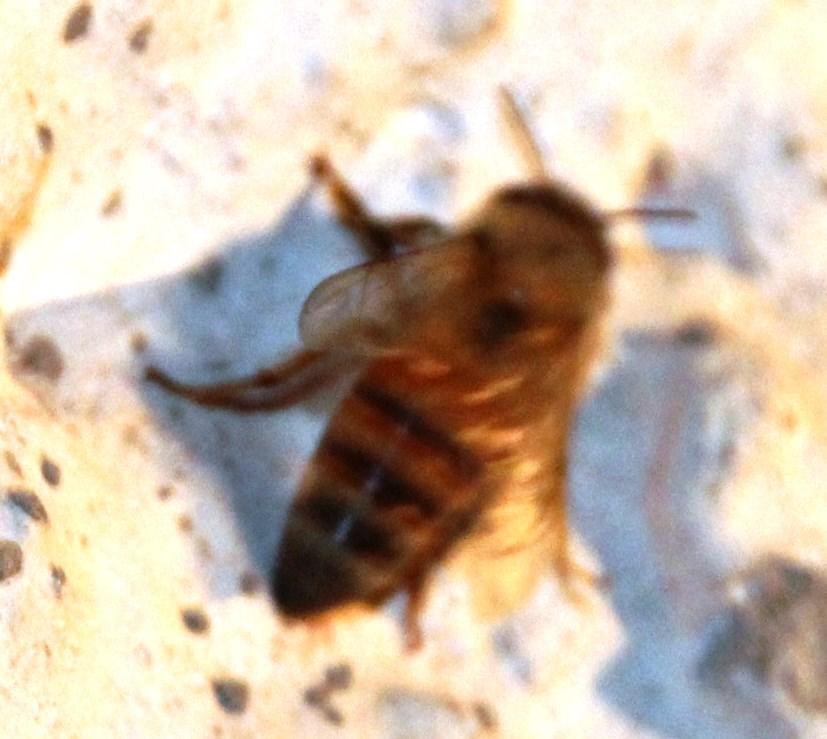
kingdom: Animalia
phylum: Arthropoda
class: Insecta
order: Hymenoptera
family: Apidae
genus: Apis
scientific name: Apis mellifera
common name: Honey bee
